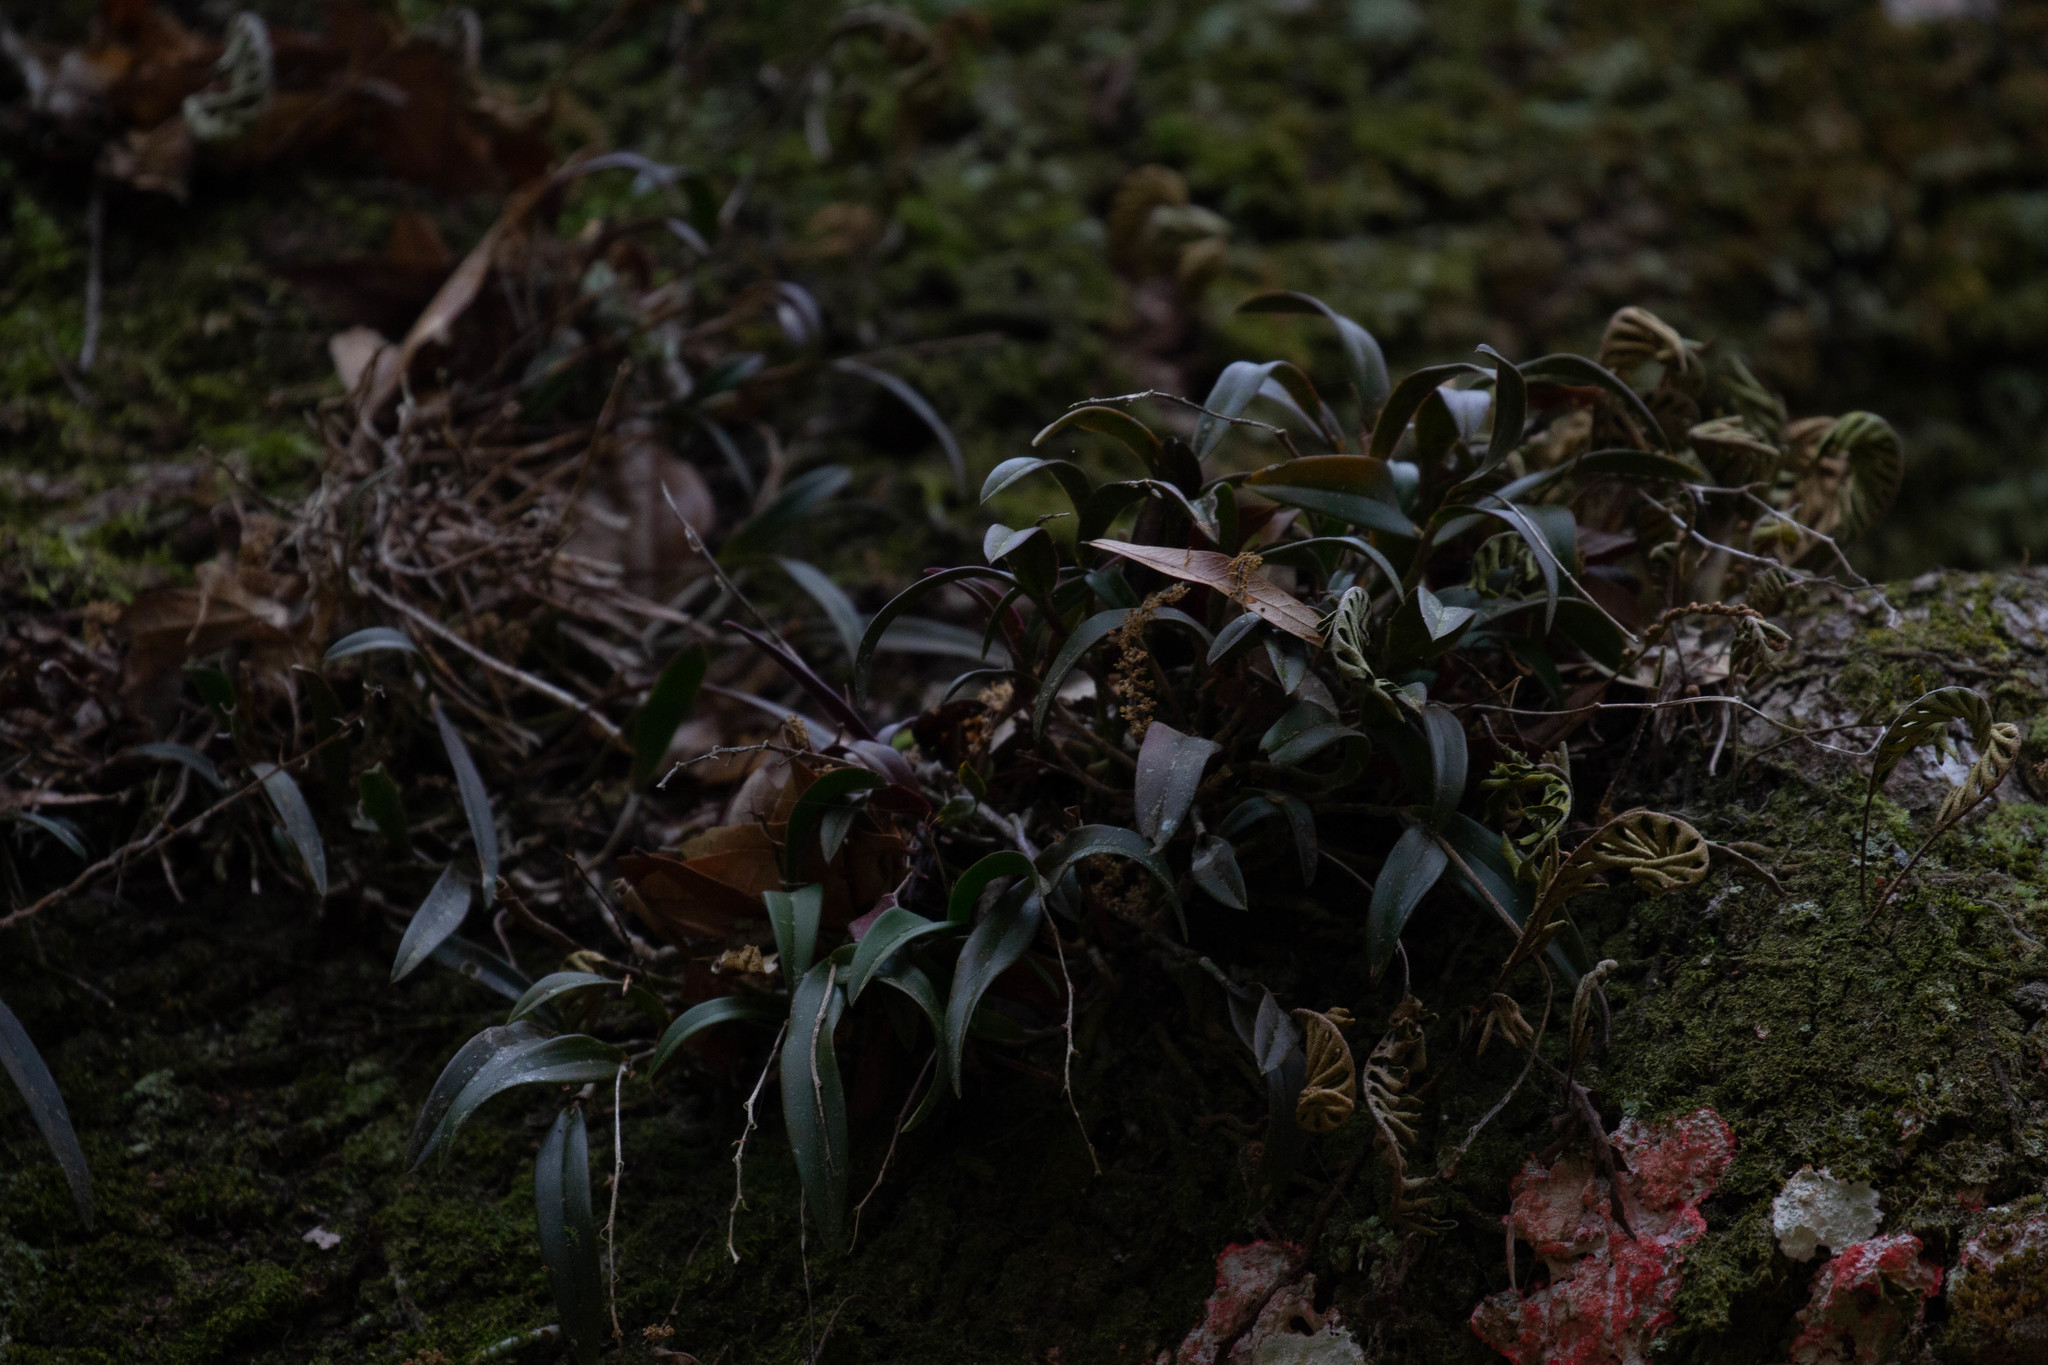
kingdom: Plantae
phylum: Tracheophyta
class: Liliopsida
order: Asparagales
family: Orchidaceae
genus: Epidendrum
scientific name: Epidendrum conopseum
